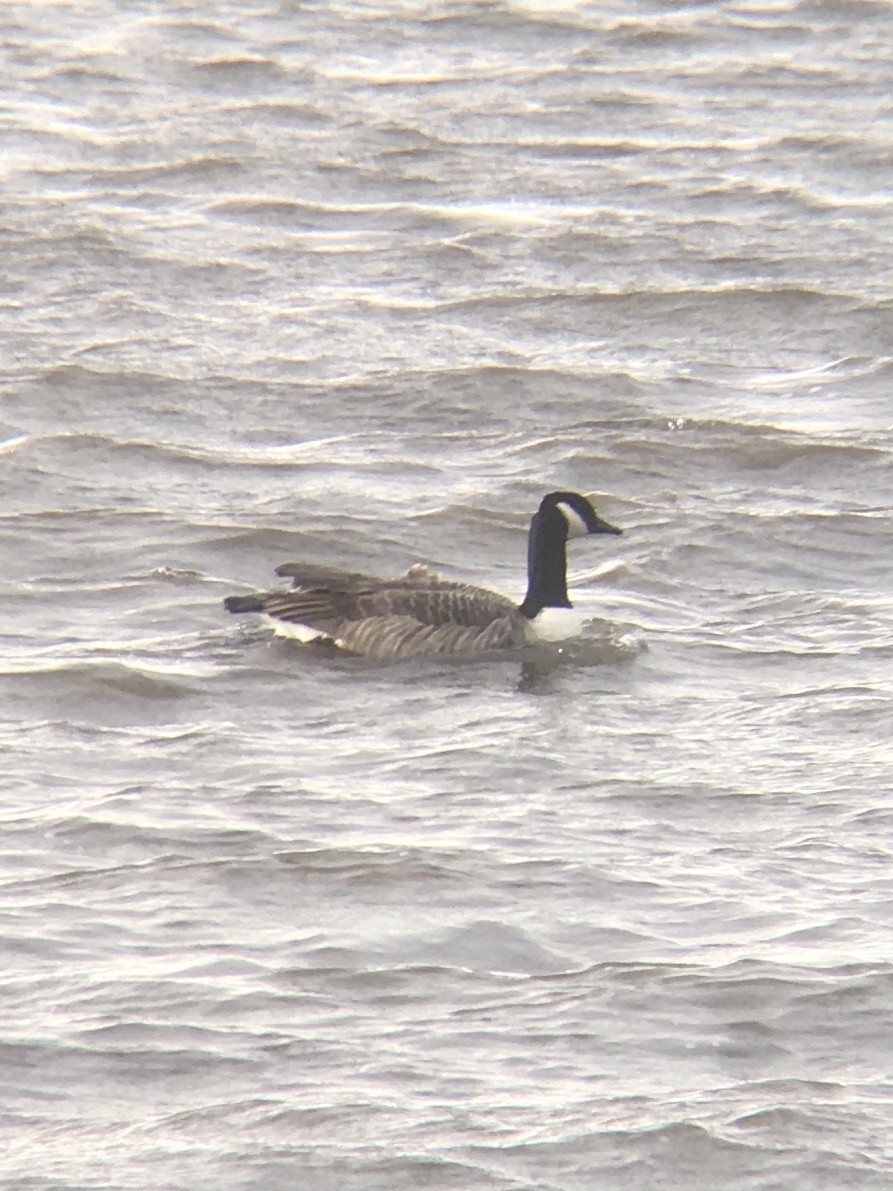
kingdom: Animalia
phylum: Chordata
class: Aves
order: Anseriformes
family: Anatidae
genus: Branta
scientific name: Branta canadensis
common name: Canada goose
